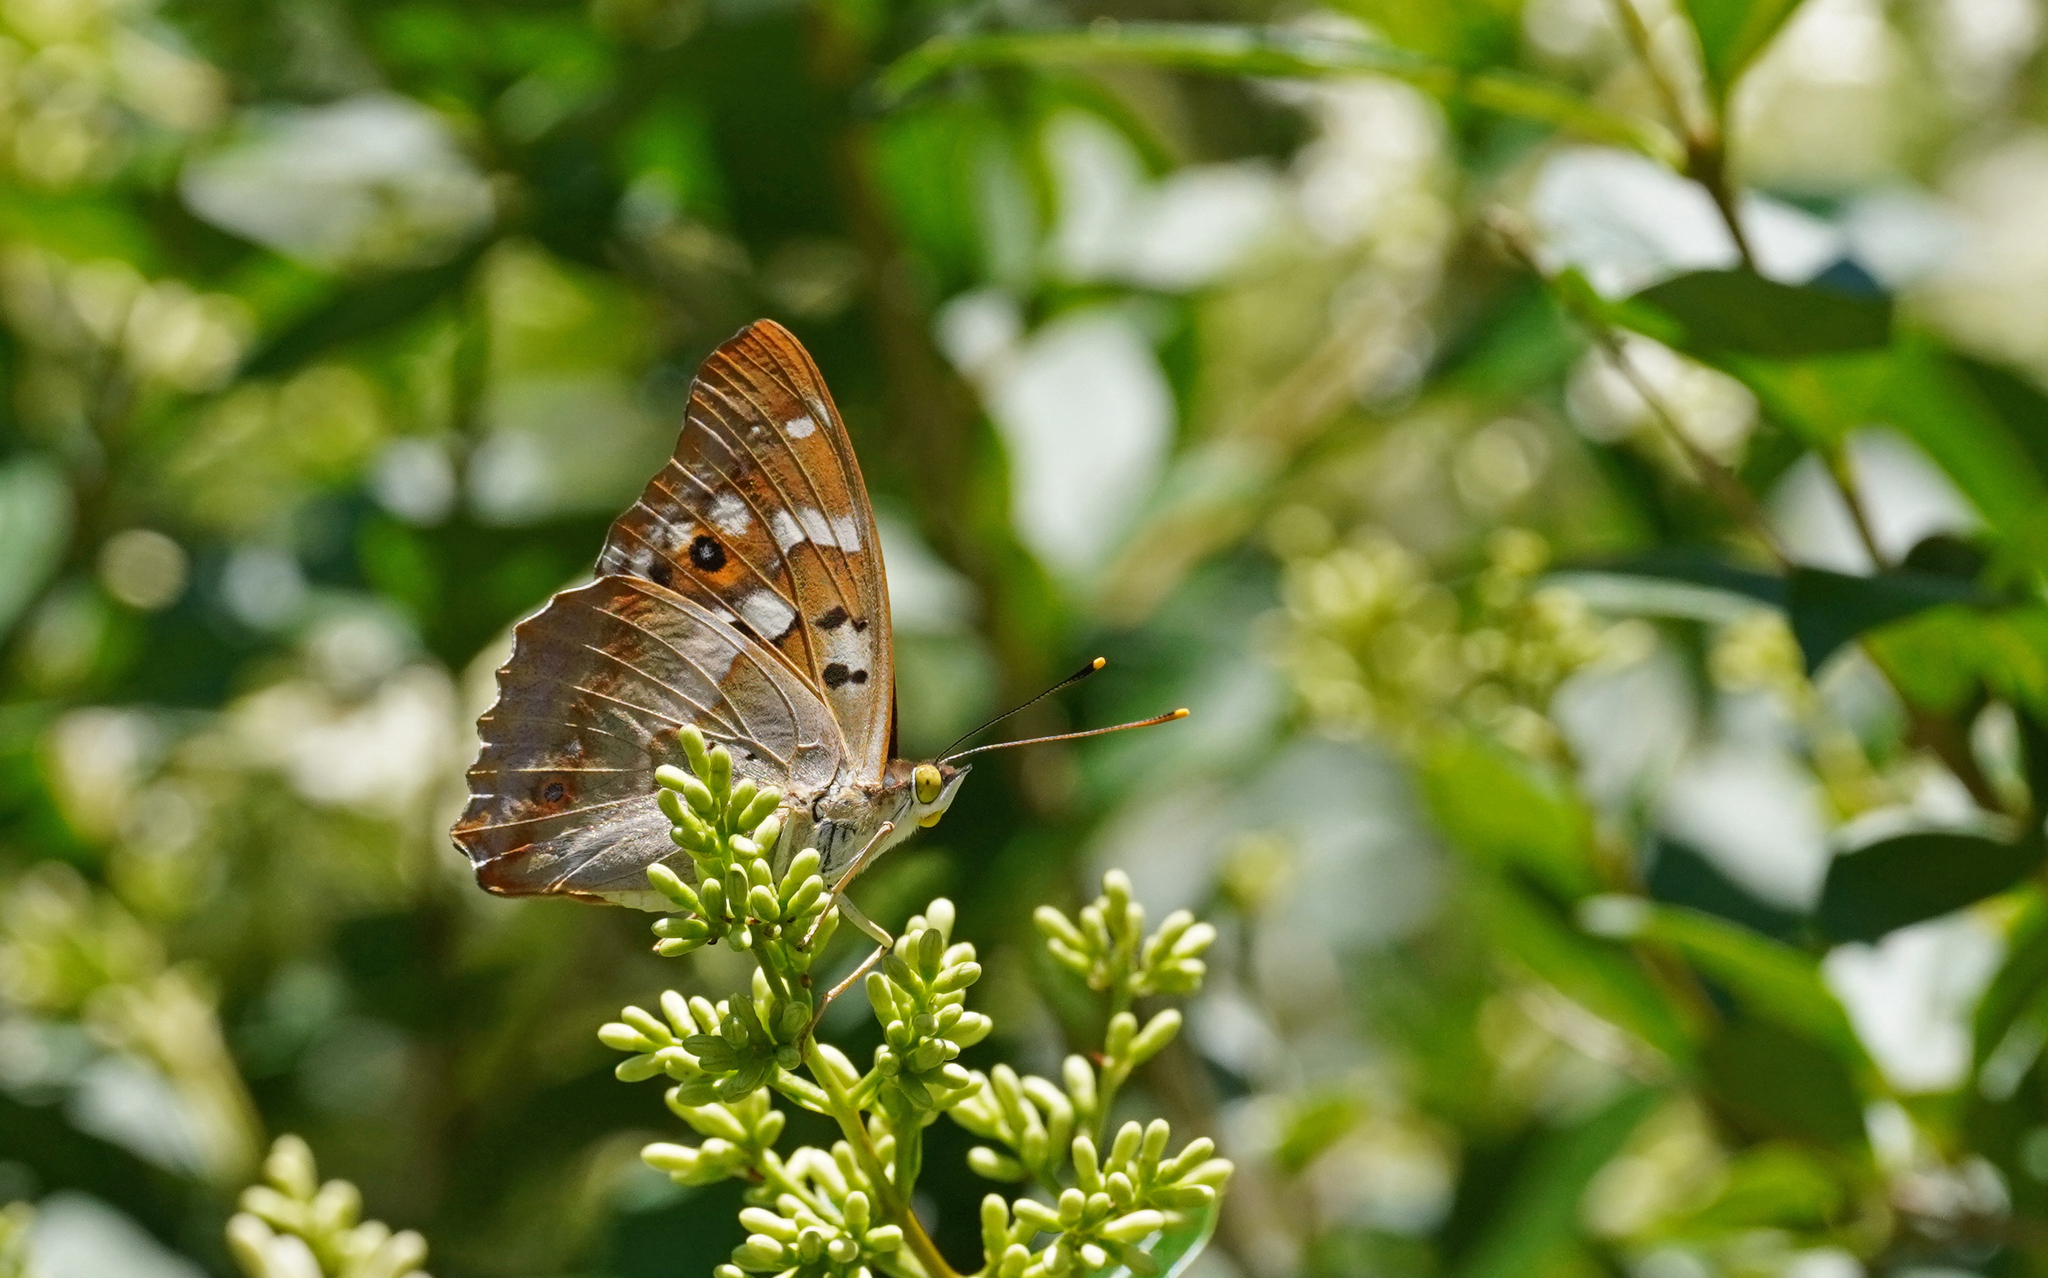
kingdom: Animalia
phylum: Arthropoda
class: Insecta
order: Lepidoptera
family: Nymphalidae
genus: Apatura
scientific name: Apatura ilia
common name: Lesser purple emperor
